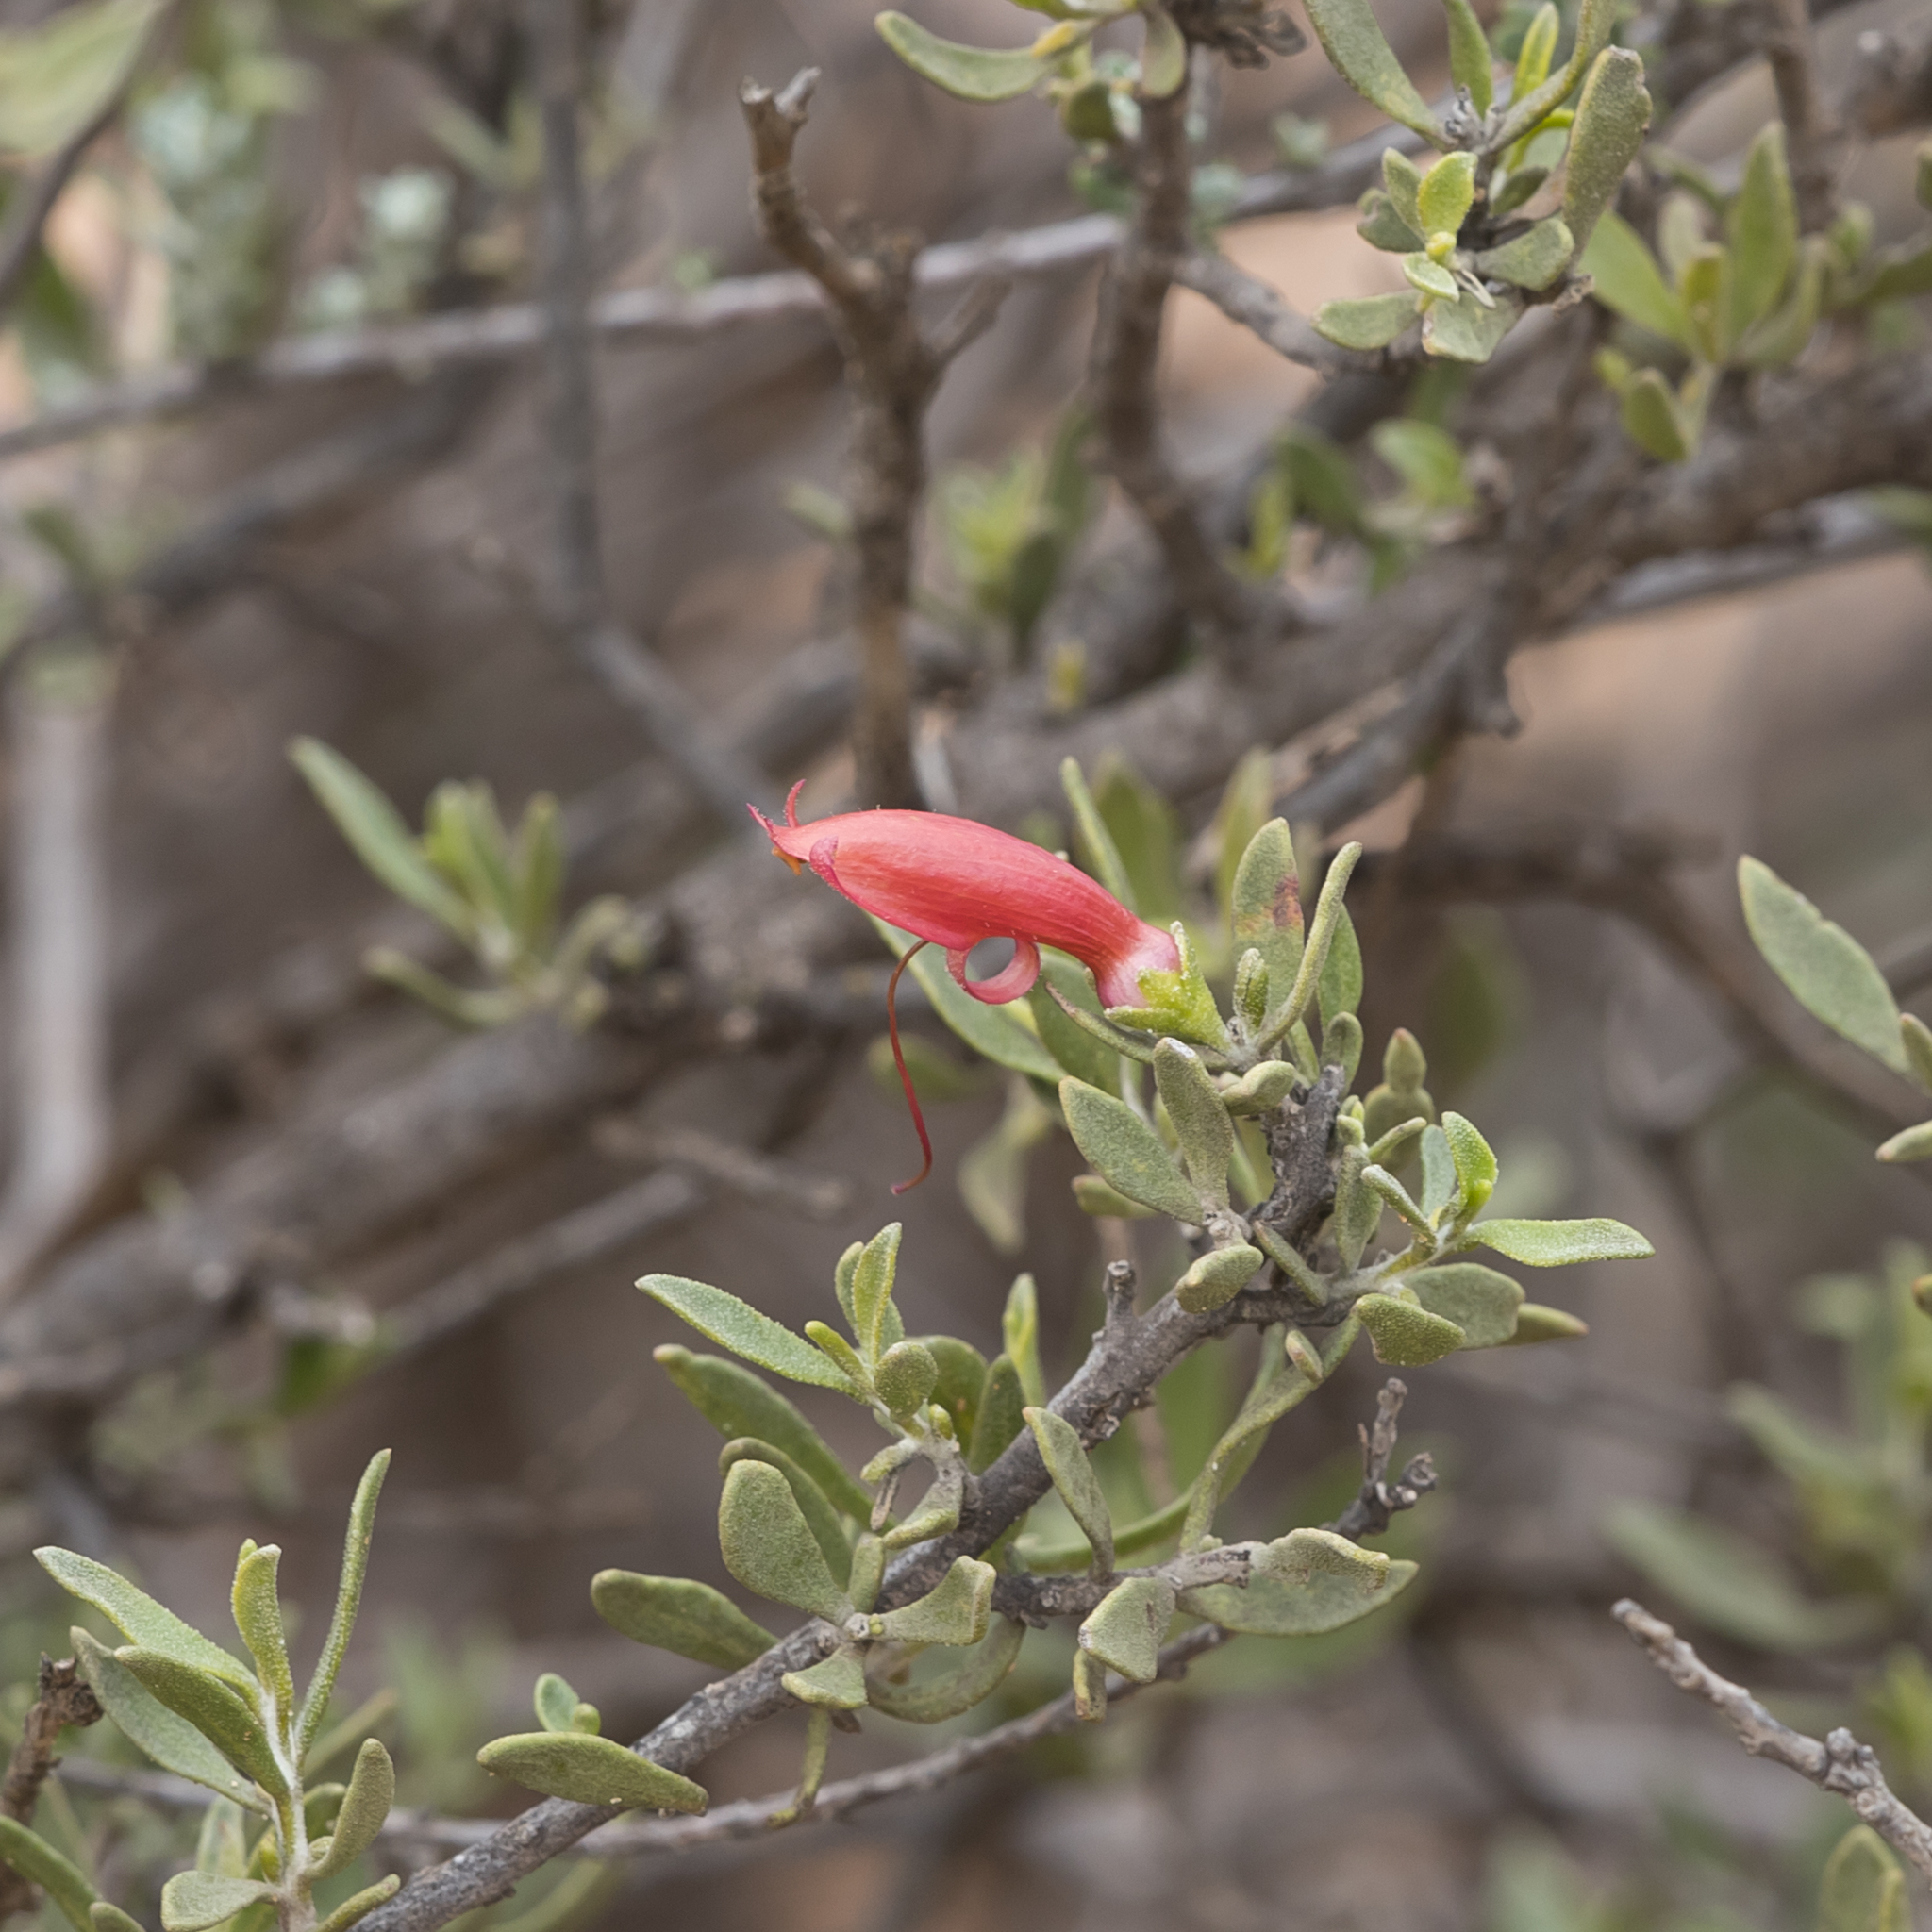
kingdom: Plantae
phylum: Tracheophyta
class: Magnoliopsida
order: Lamiales
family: Scrophulariaceae
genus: Eremophila
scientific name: Eremophila glabra
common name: Black-fuchsia
